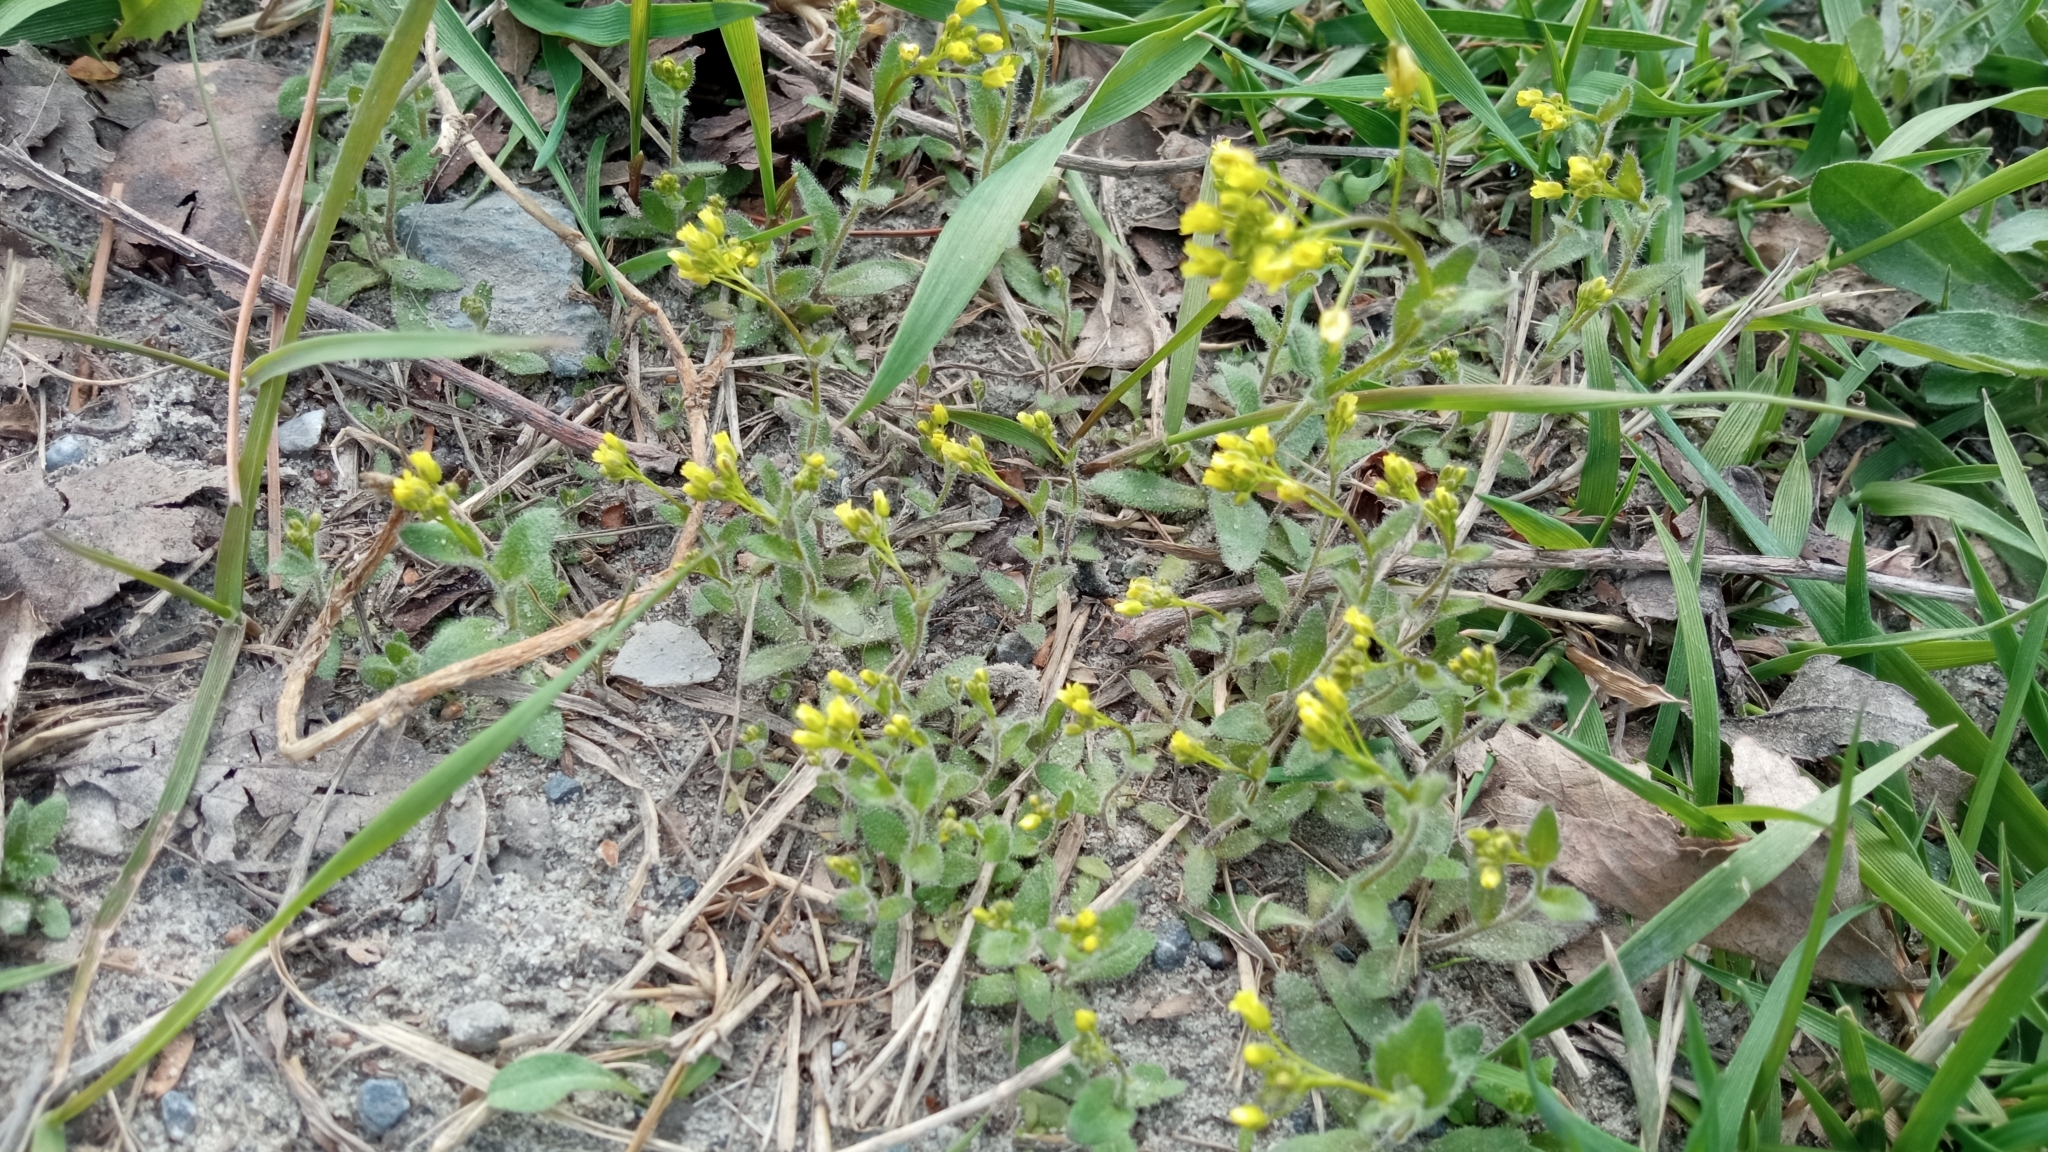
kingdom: Plantae
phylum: Tracheophyta
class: Magnoliopsida
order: Brassicales
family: Brassicaceae
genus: Draba
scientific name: Draba nemorosa
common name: Wood whitlow-grass
